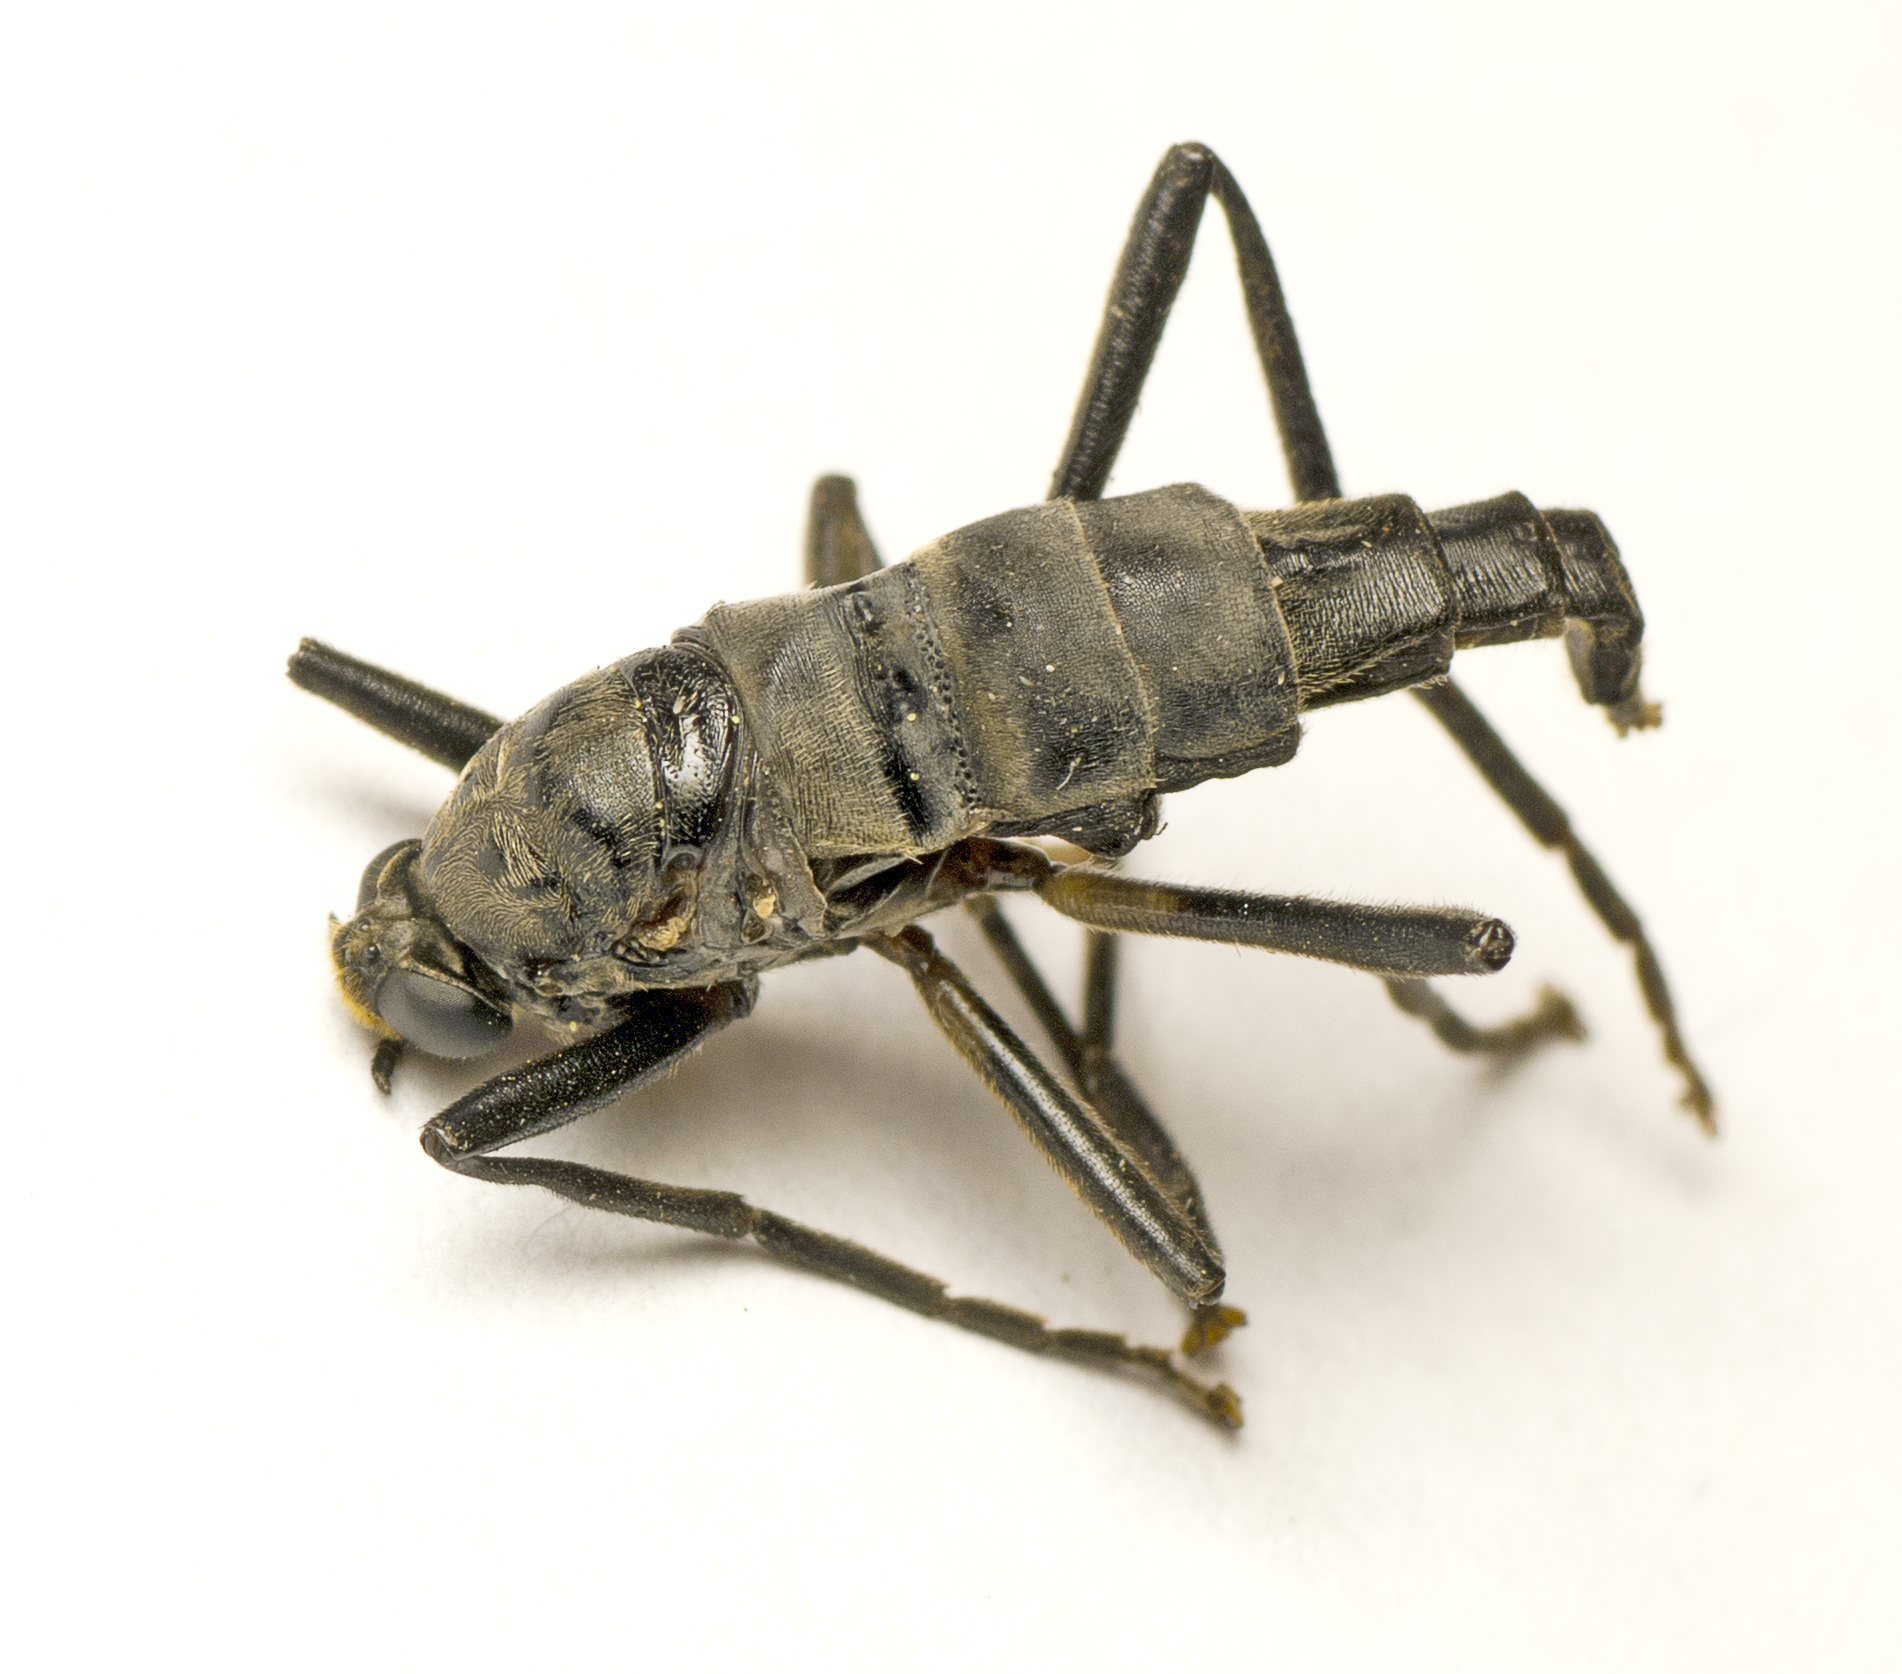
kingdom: Animalia
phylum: Arthropoda
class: Insecta
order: Diptera
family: Stratiomyidae
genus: Boreoides
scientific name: Boreoides subulatus
